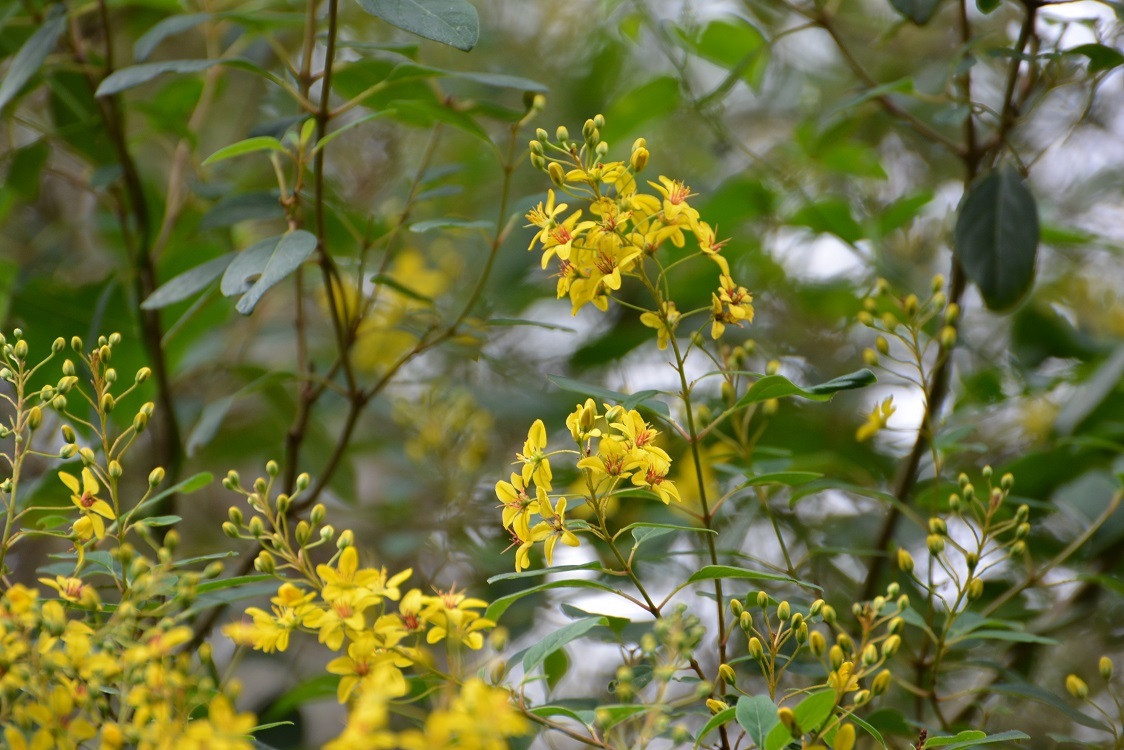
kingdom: Plantae
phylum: Tracheophyta
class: Magnoliopsida
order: Malpighiales
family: Malpighiaceae
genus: Galphimia
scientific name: Galphimia speciosa
